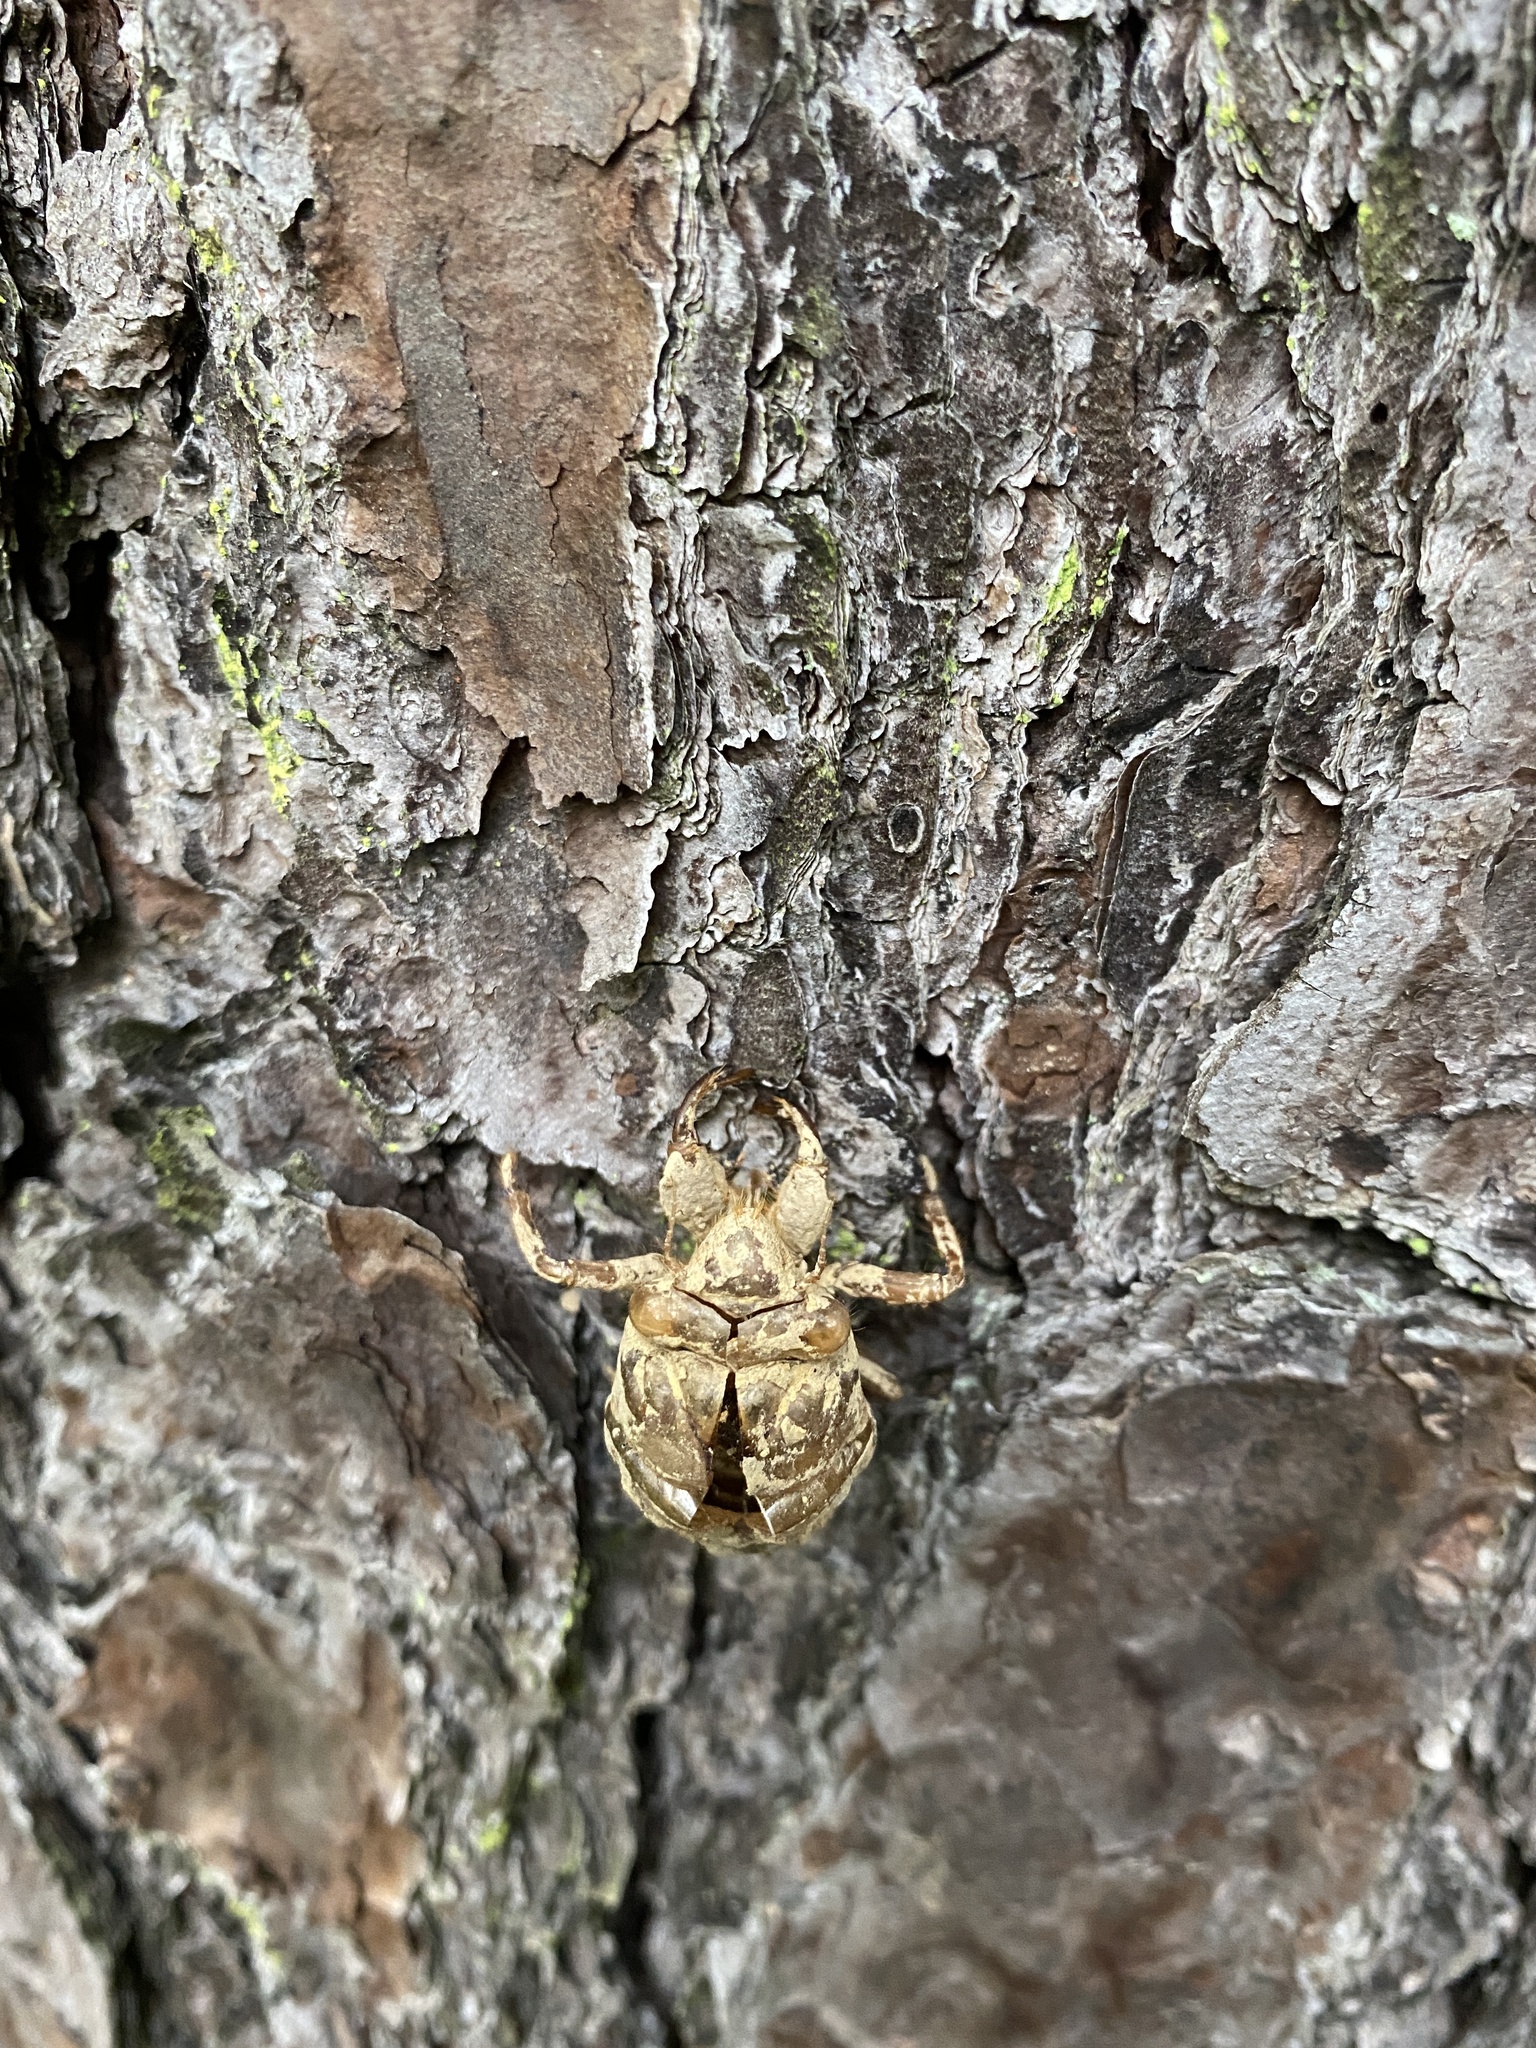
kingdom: Animalia
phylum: Arthropoda
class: Insecta
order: Hemiptera
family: Cicadidae
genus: Megatibicen
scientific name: Megatibicen resh
